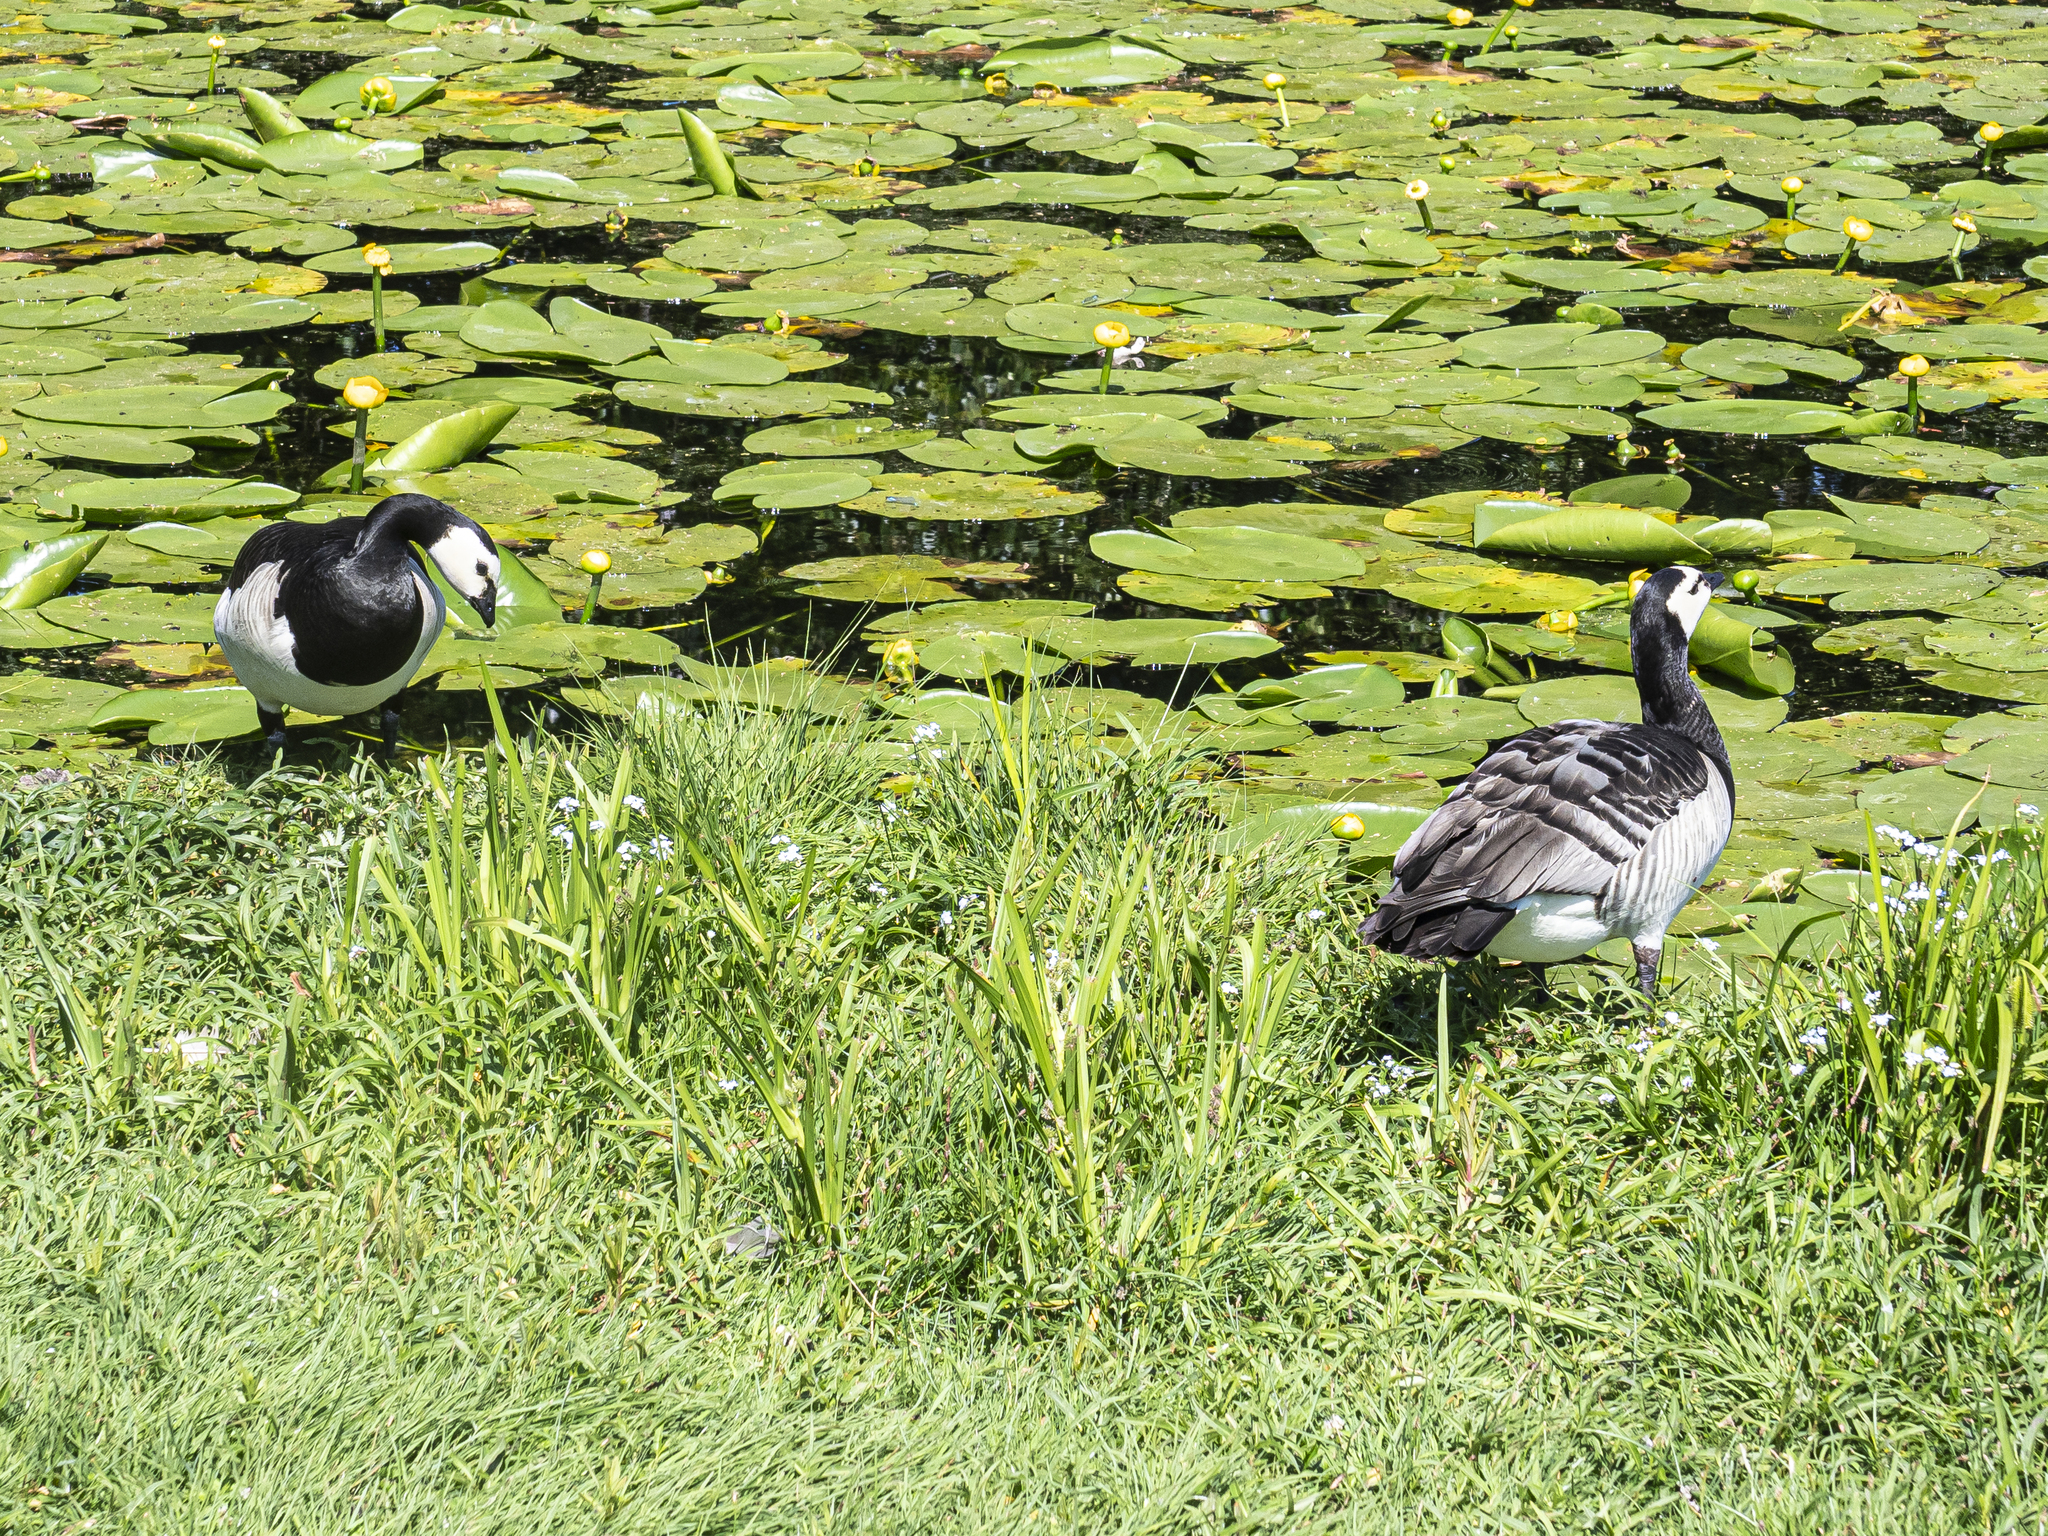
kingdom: Plantae
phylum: Tracheophyta
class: Magnoliopsida
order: Nymphaeales
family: Nymphaeaceae
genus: Nuphar
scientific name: Nuphar lutea
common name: Yellow water-lily
